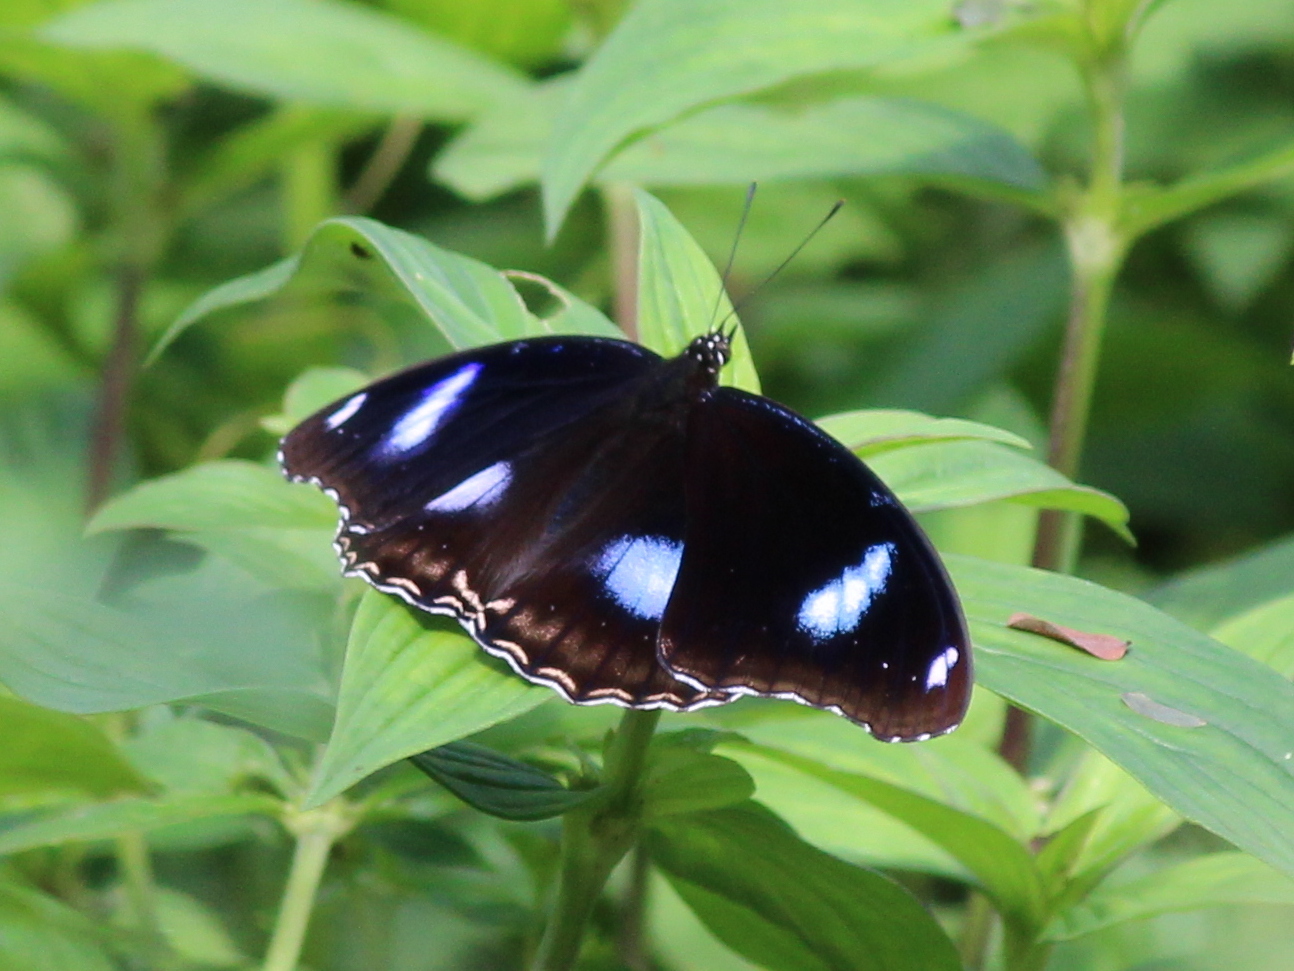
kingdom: Animalia
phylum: Arthropoda
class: Insecta
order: Lepidoptera
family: Nymphalidae
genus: Hypolimnas
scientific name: Hypolimnas bolina
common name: Great eggfly
